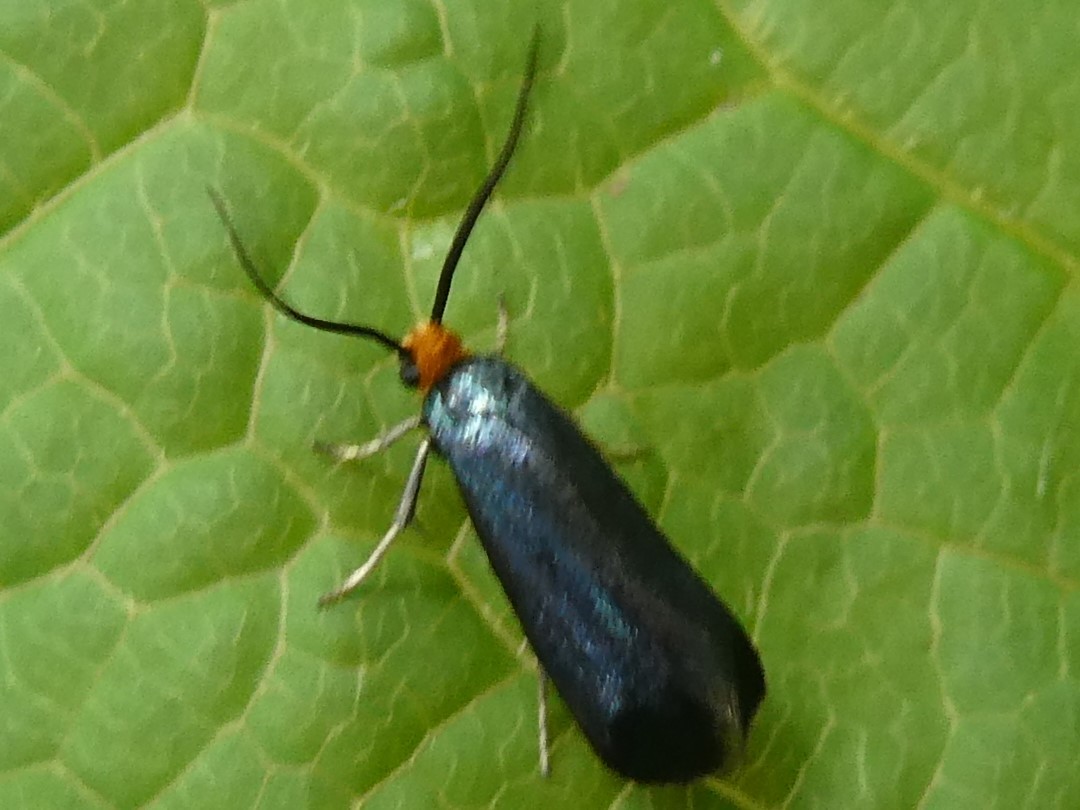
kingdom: Animalia
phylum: Arthropoda
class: Insecta
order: Lepidoptera
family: Incurvariidae
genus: Paraclemensia
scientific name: Paraclemensia acerifoliella
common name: Maple leafcutter
